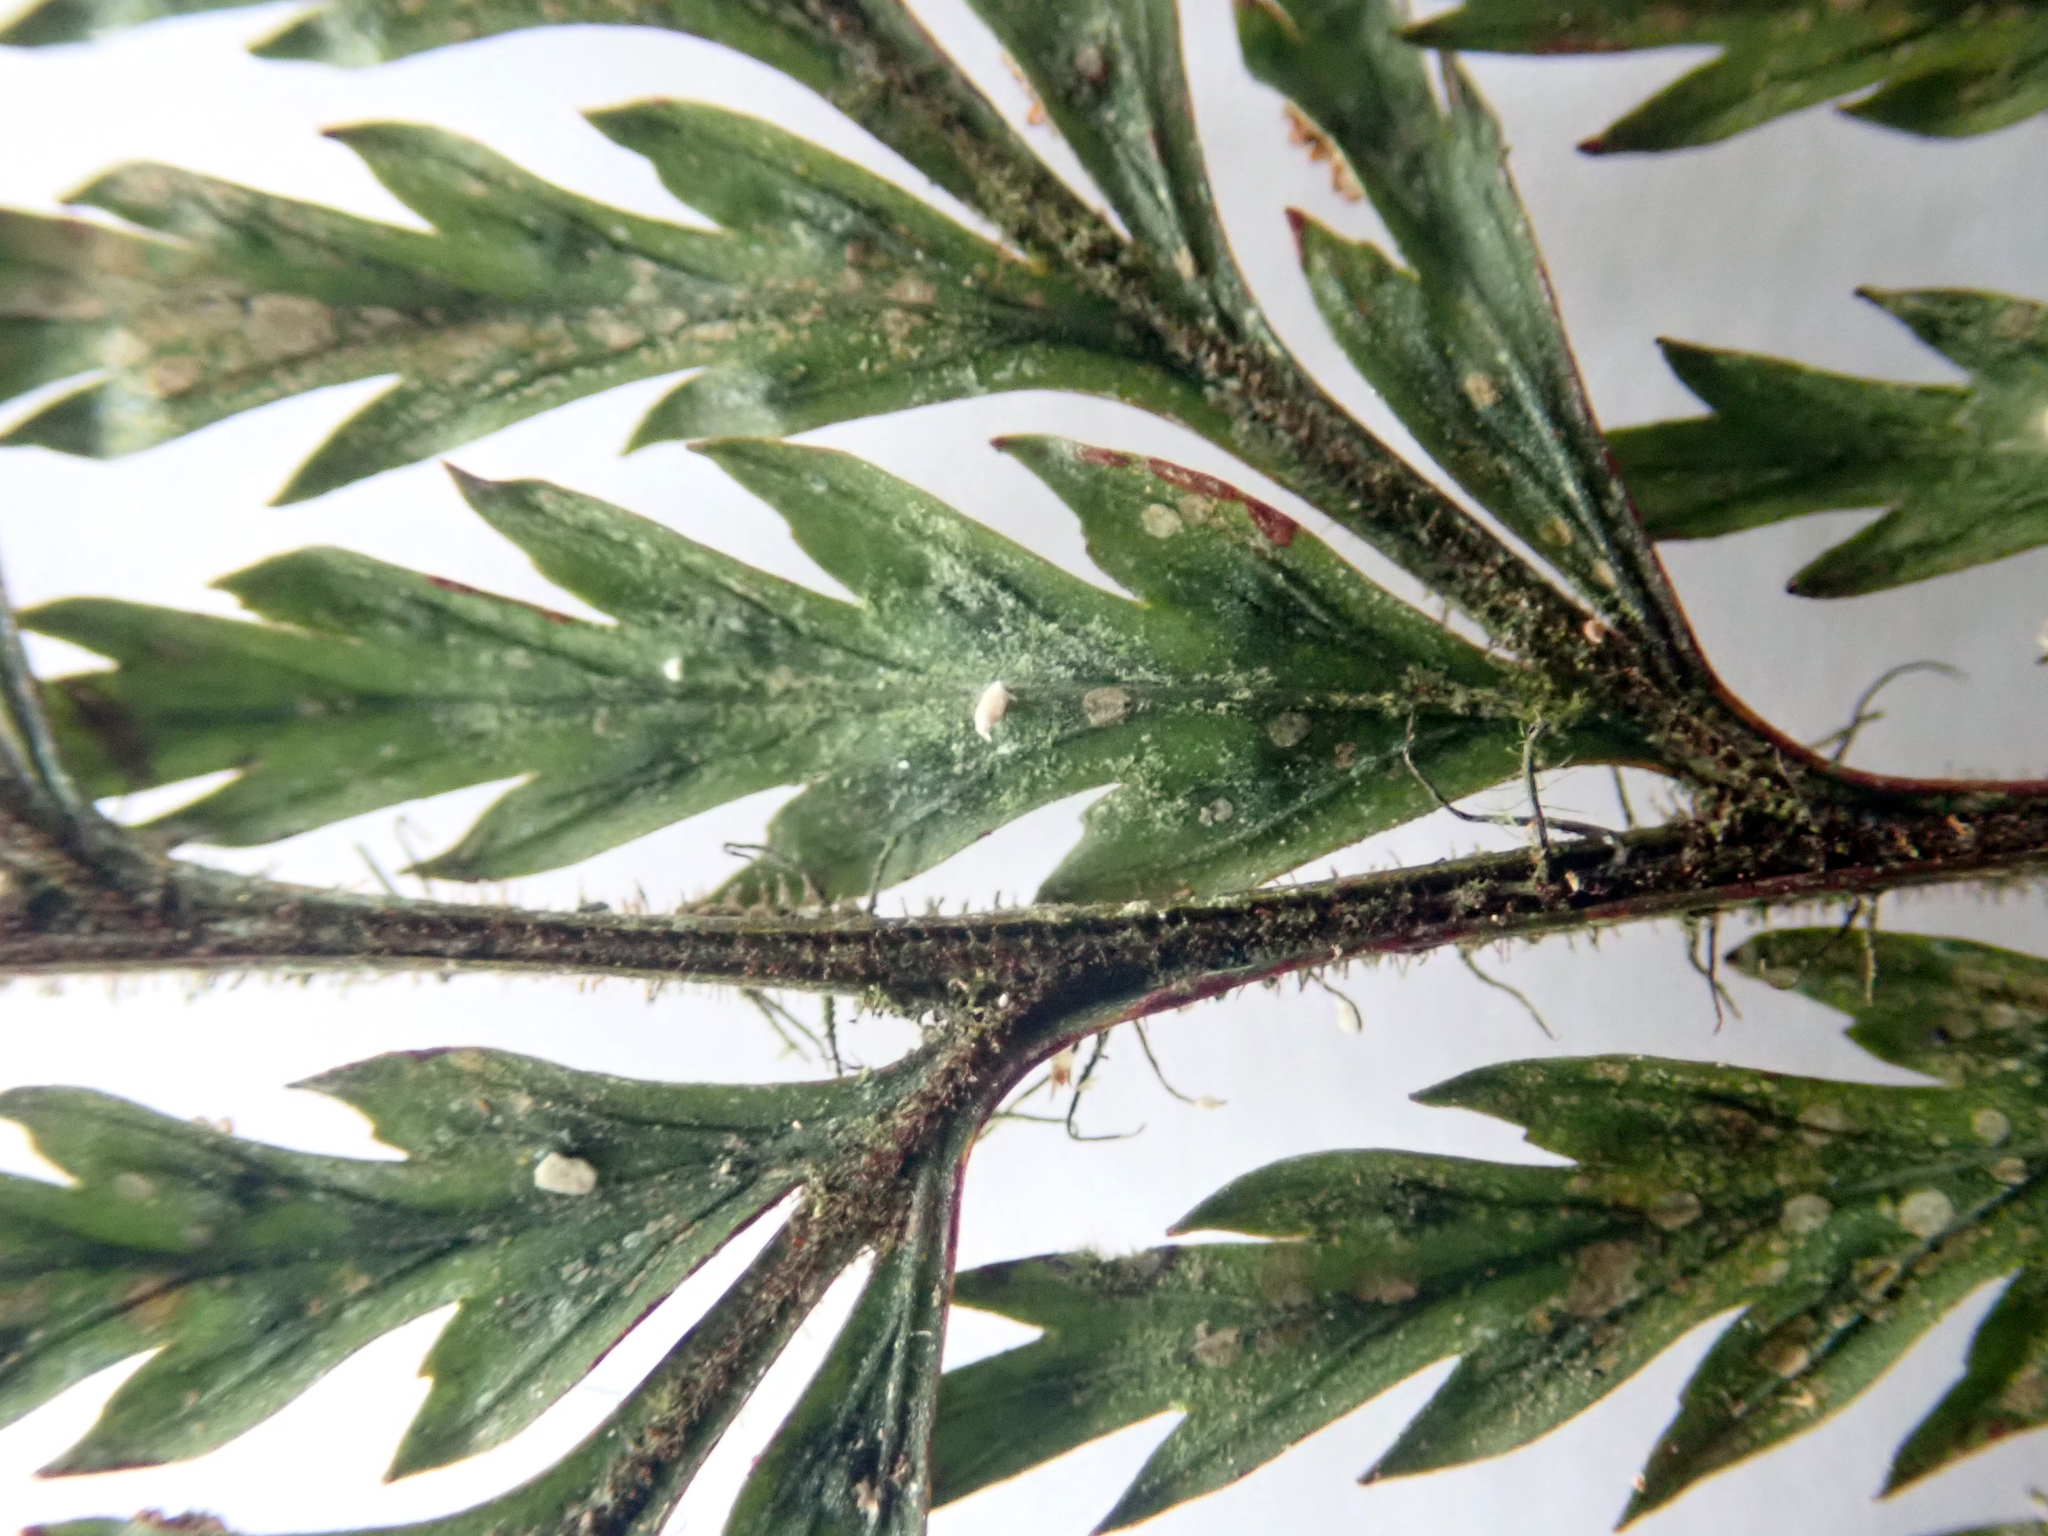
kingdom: Fungi
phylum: Ascomycota
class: Lecanoromycetes
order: Lecanorales
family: Byssolomataceae
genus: Badimiella
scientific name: Badimiella pteridophila
